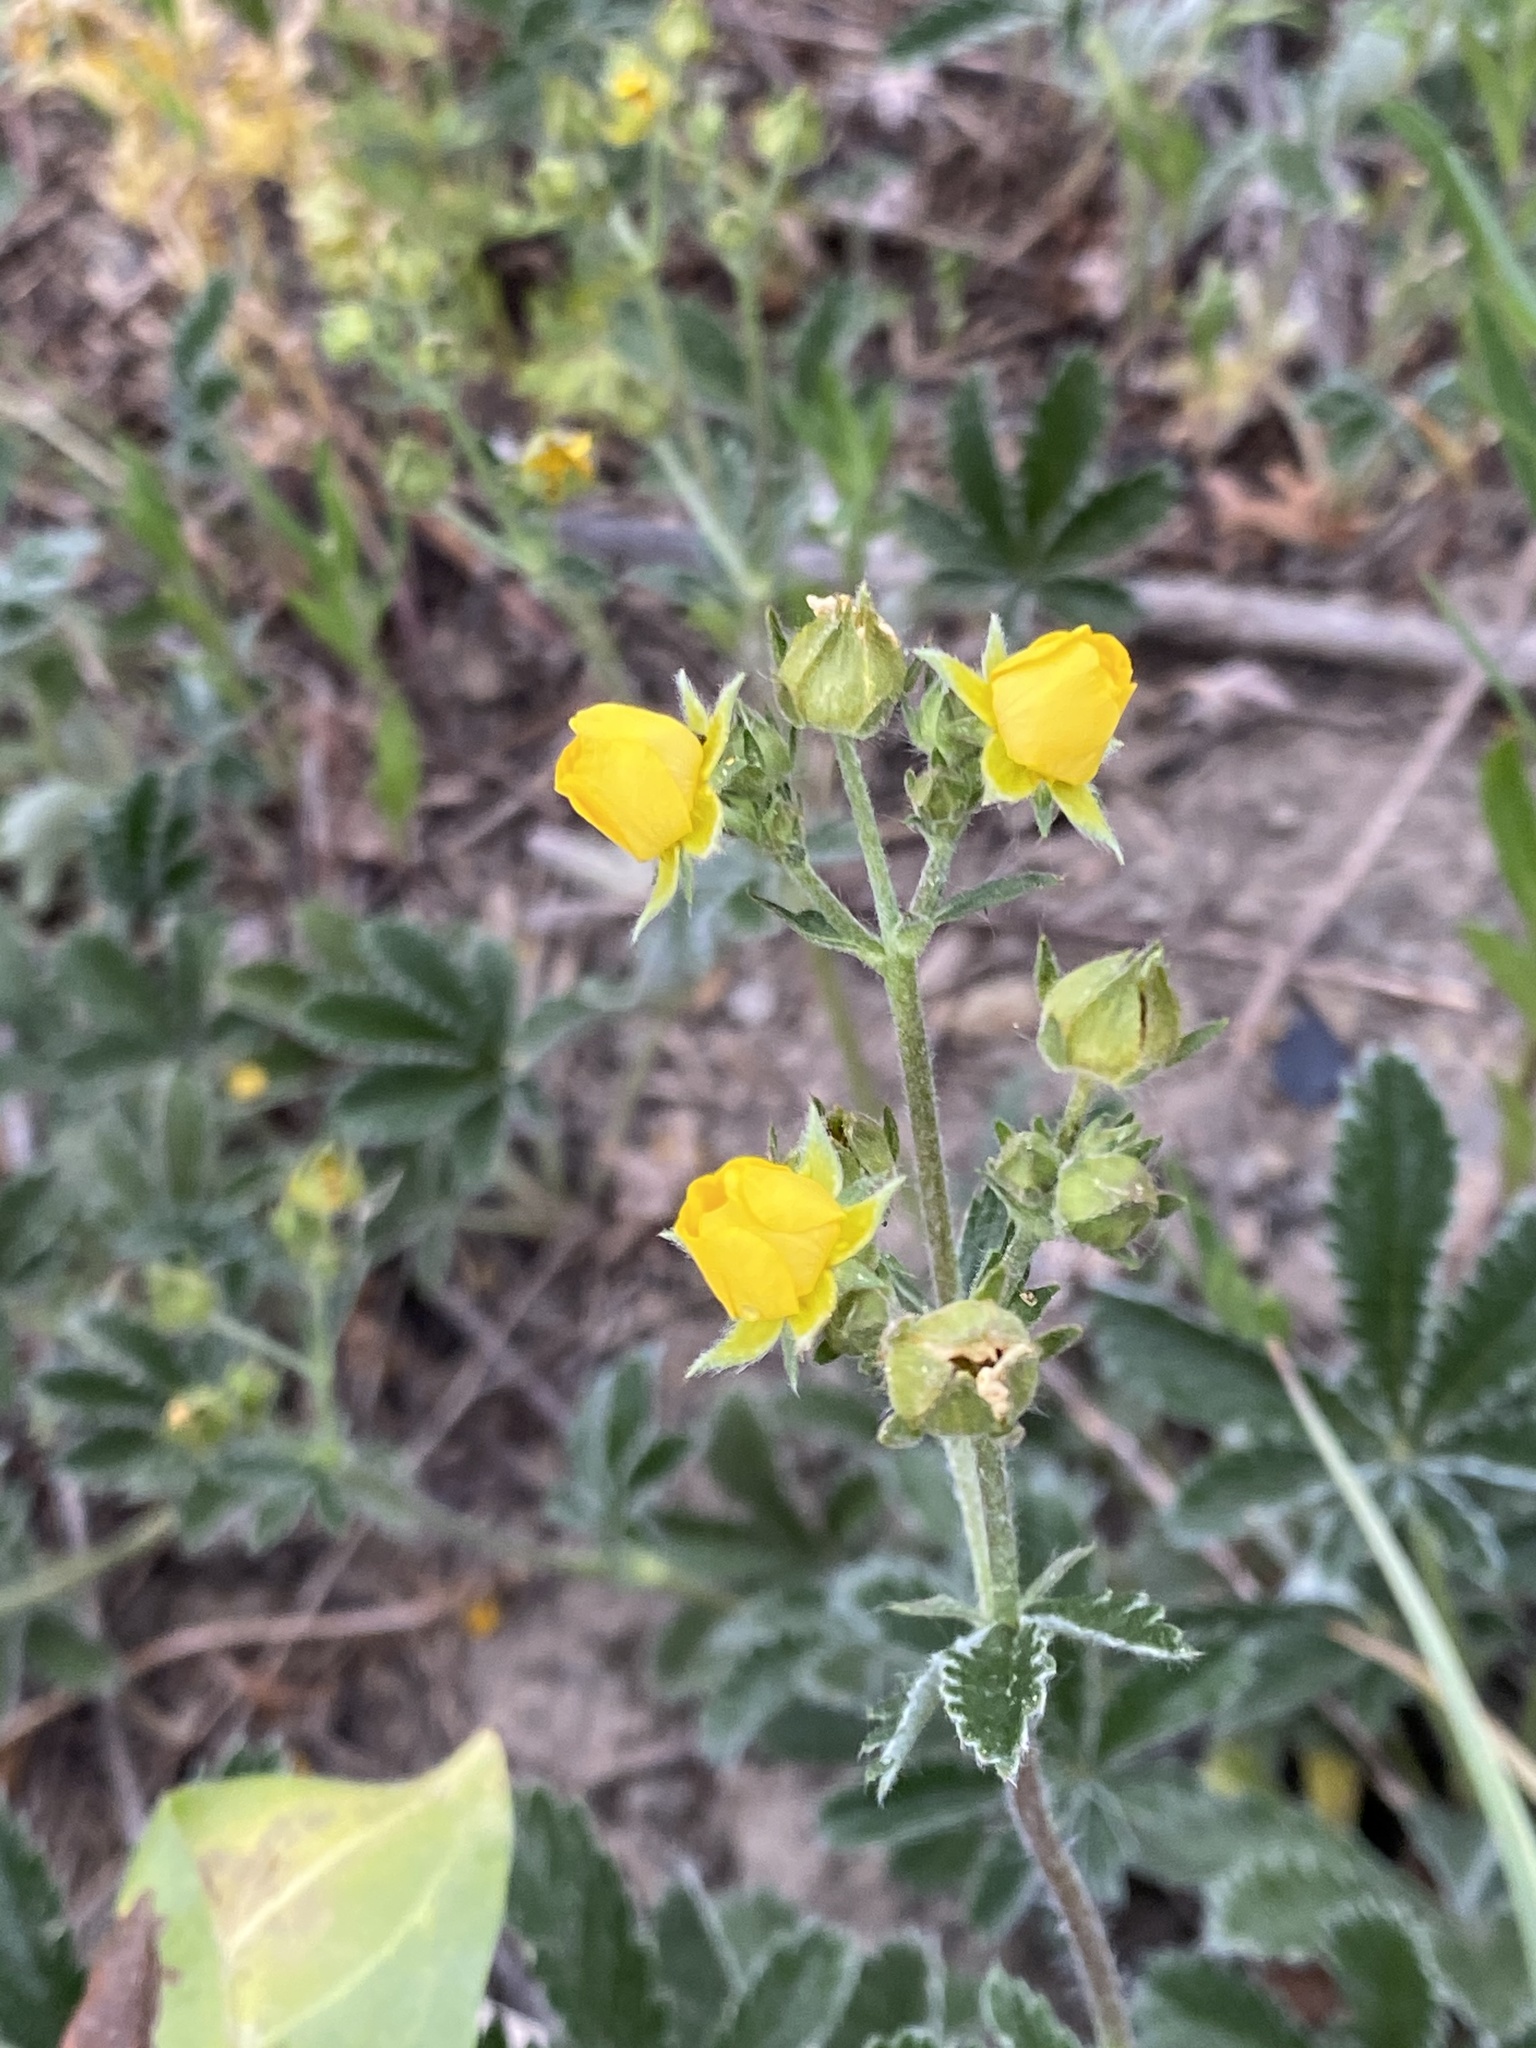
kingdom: Plantae
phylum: Tracheophyta
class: Magnoliopsida
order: Rosales
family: Rosaceae
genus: Potentilla
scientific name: Potentilla pulcherrima
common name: Beautiful cinquefoil
